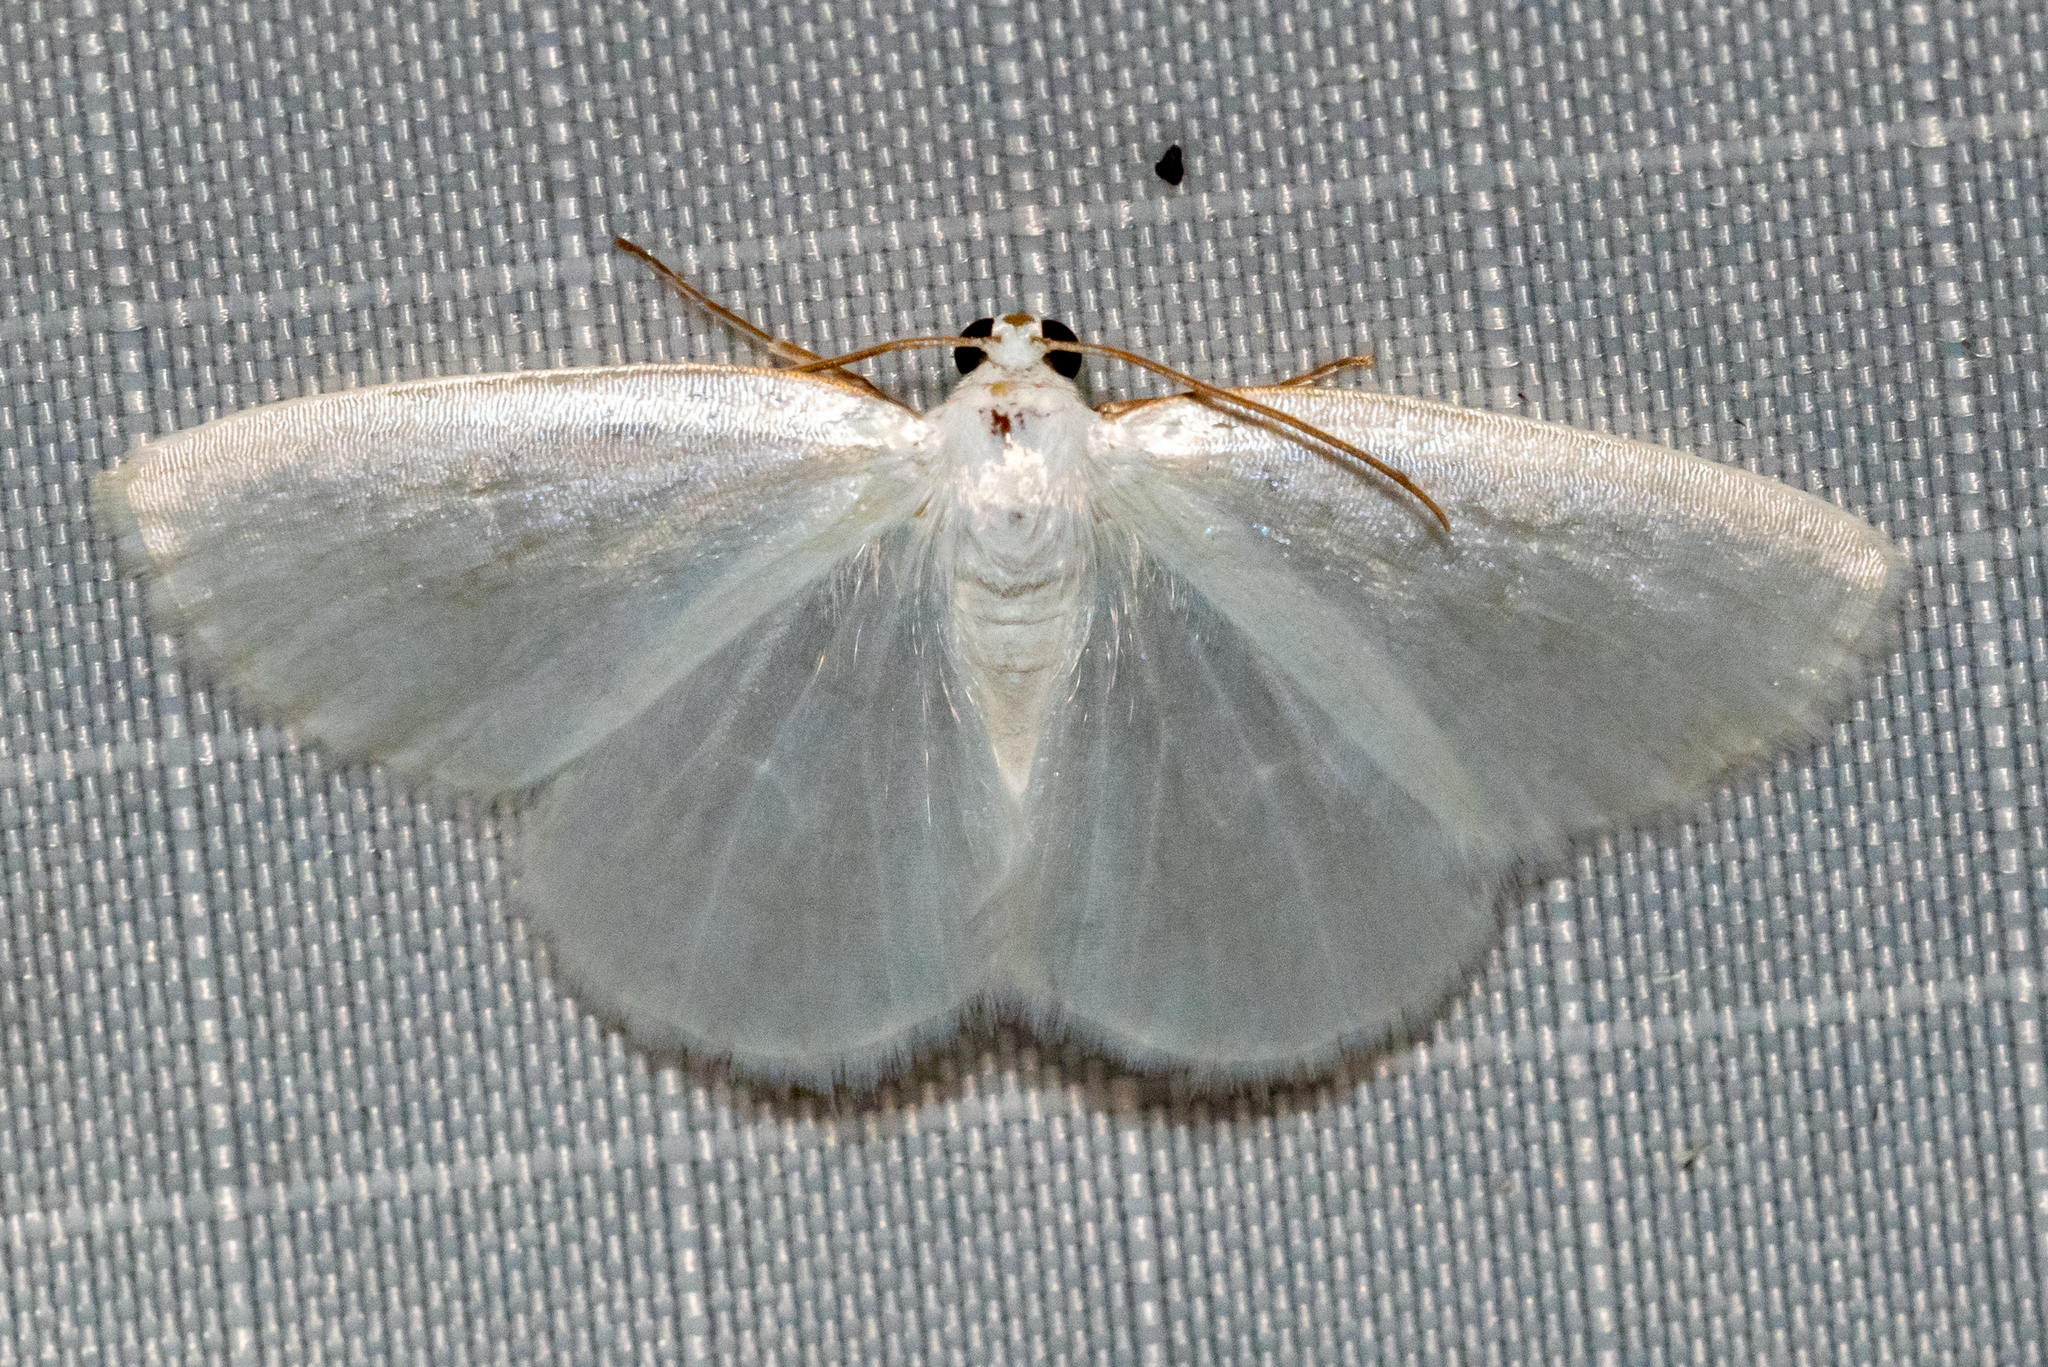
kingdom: Animalia
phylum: Arthropoda
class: Insecta
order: Lepidoptera
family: Geometridae
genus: Lomographa
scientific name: Lomographa vestaliata
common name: White spring moth
